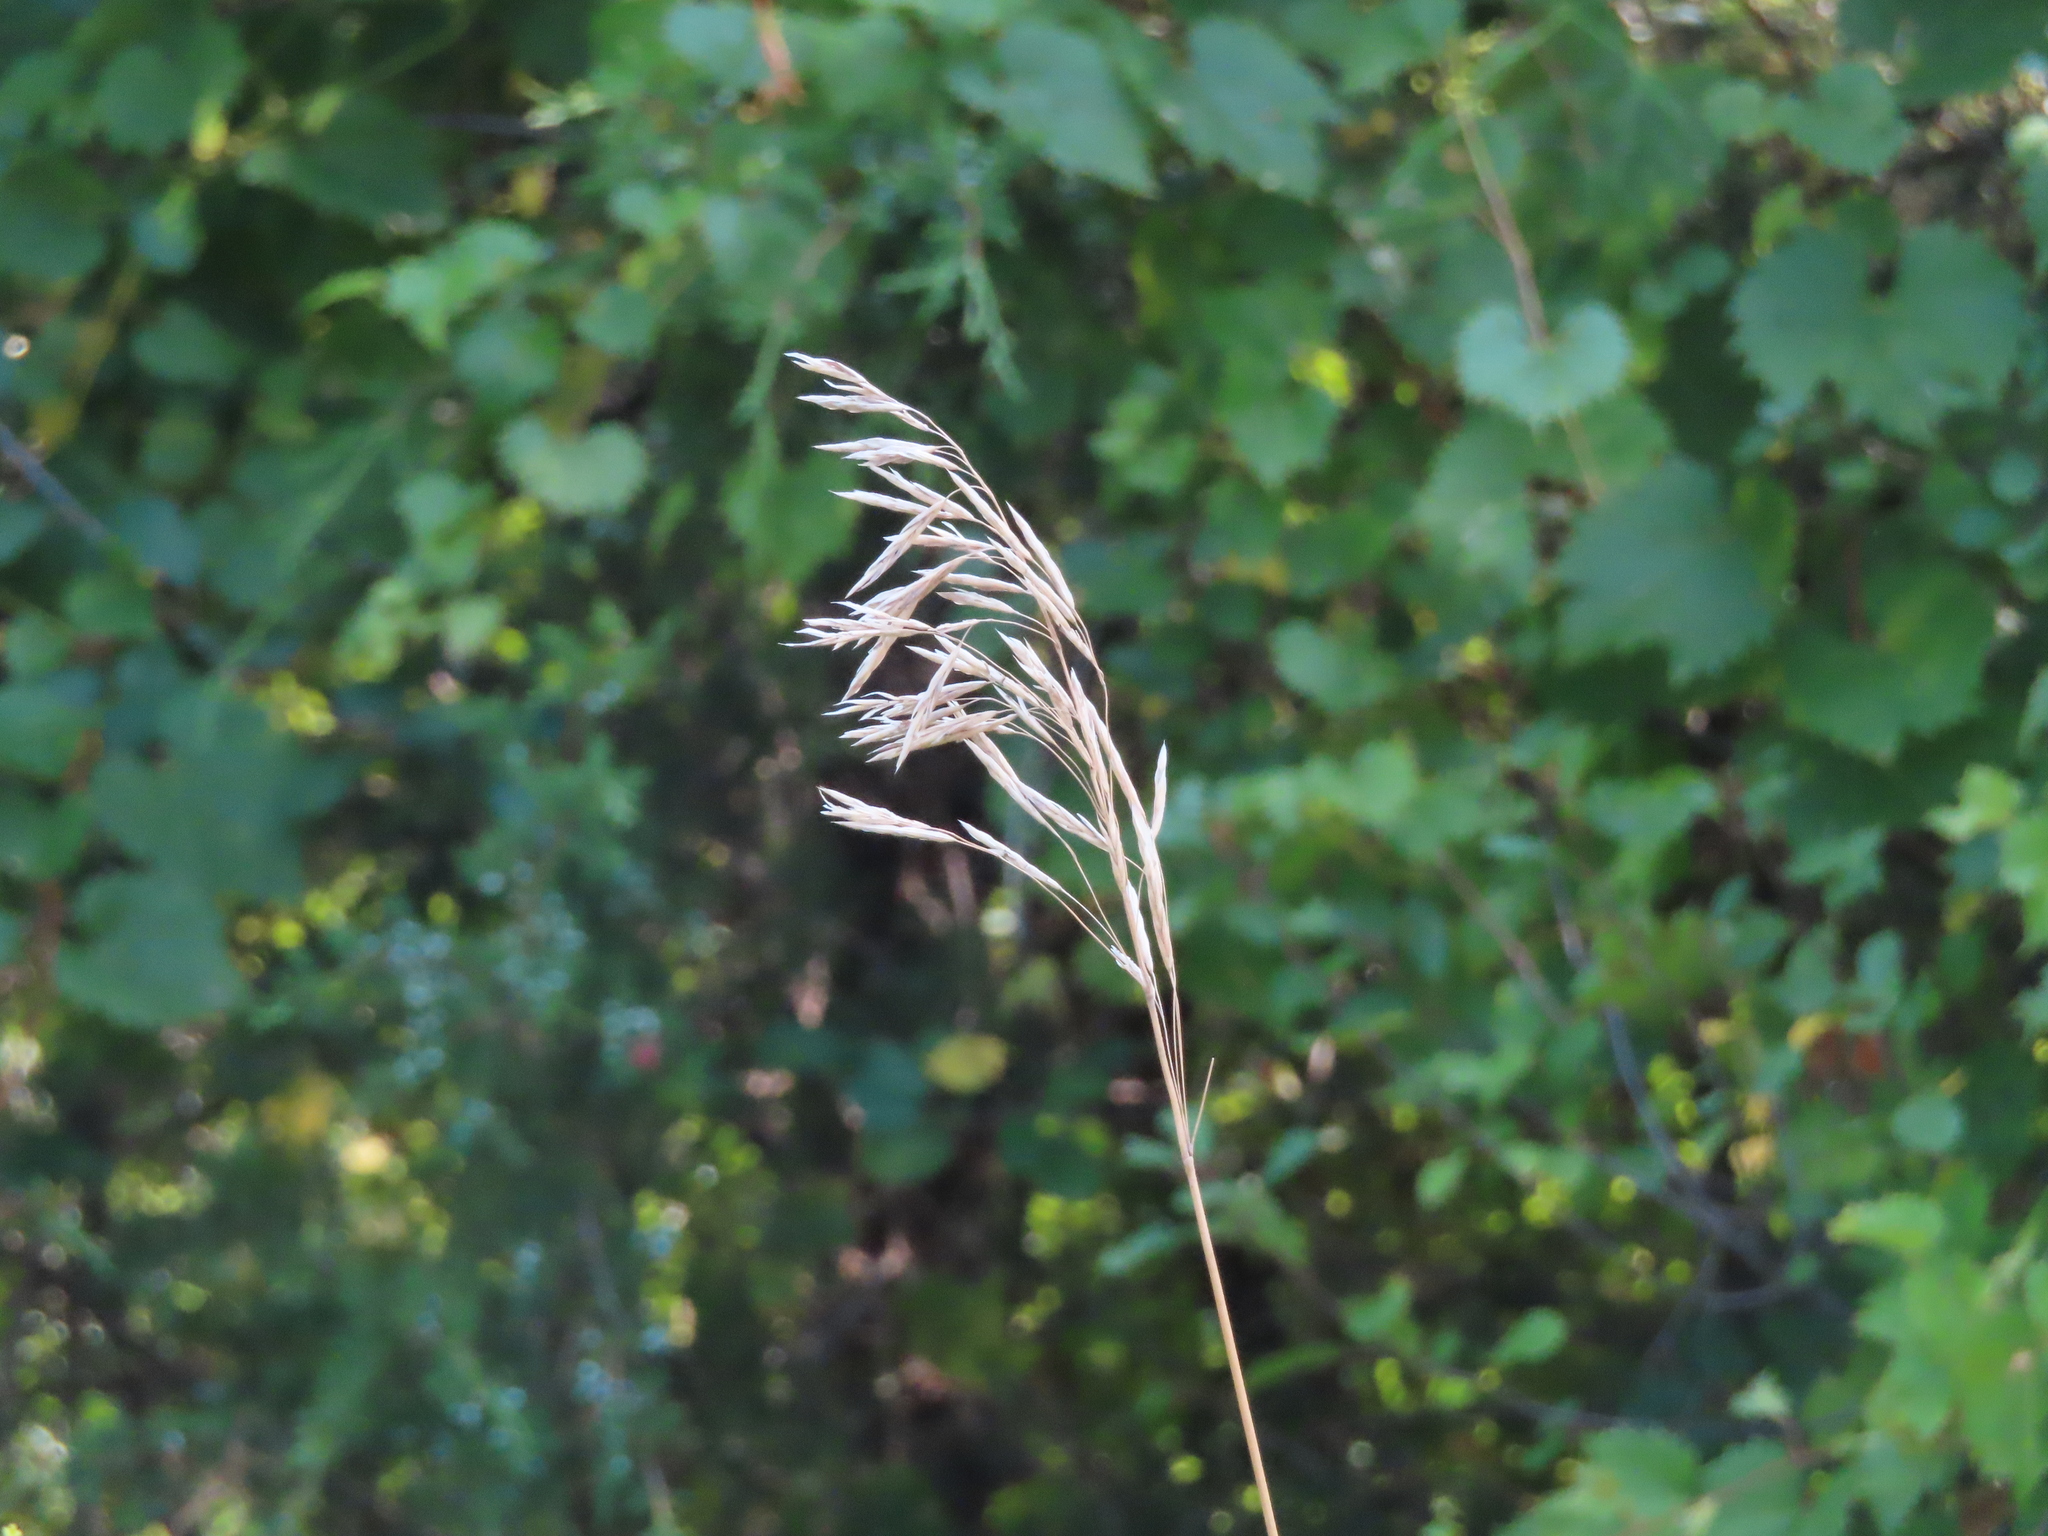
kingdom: Plantae
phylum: Tracheophyta
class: Liliopsida
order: Poales
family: Poaceae
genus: Bromus
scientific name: Bromus inermis
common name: Smooth brome
